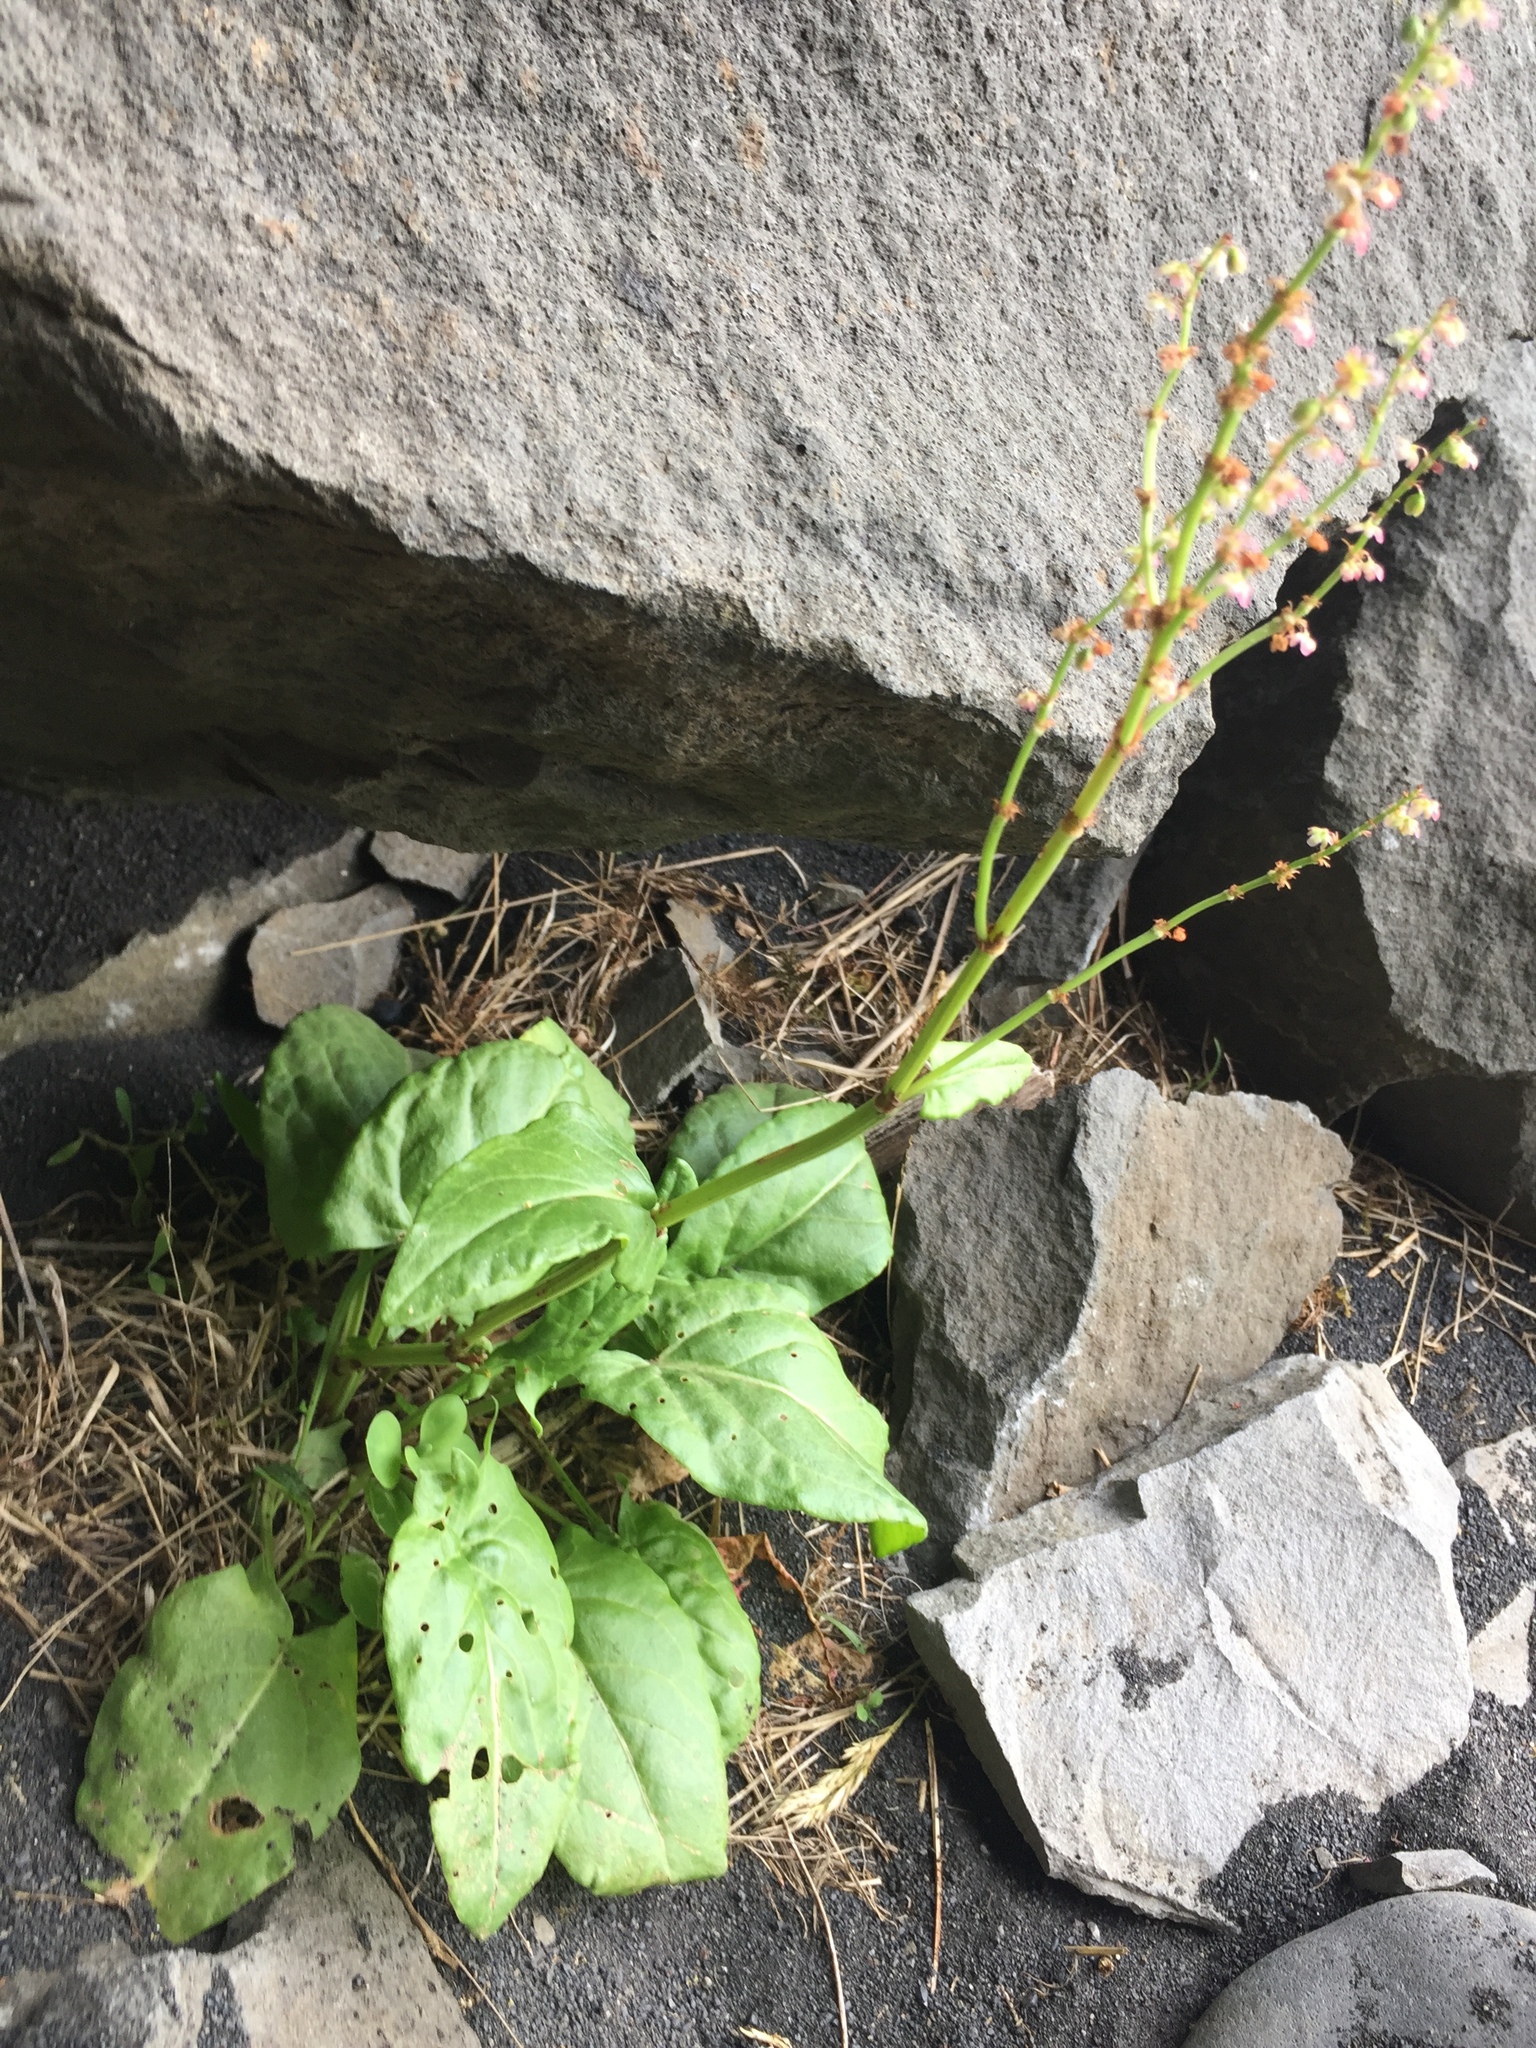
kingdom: Plantae
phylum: Tracheophyta
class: Magnoliopsida
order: Caryophyllales
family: Polygonaceae
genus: Rumex
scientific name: Rumex acetosa
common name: Garden sorrel
